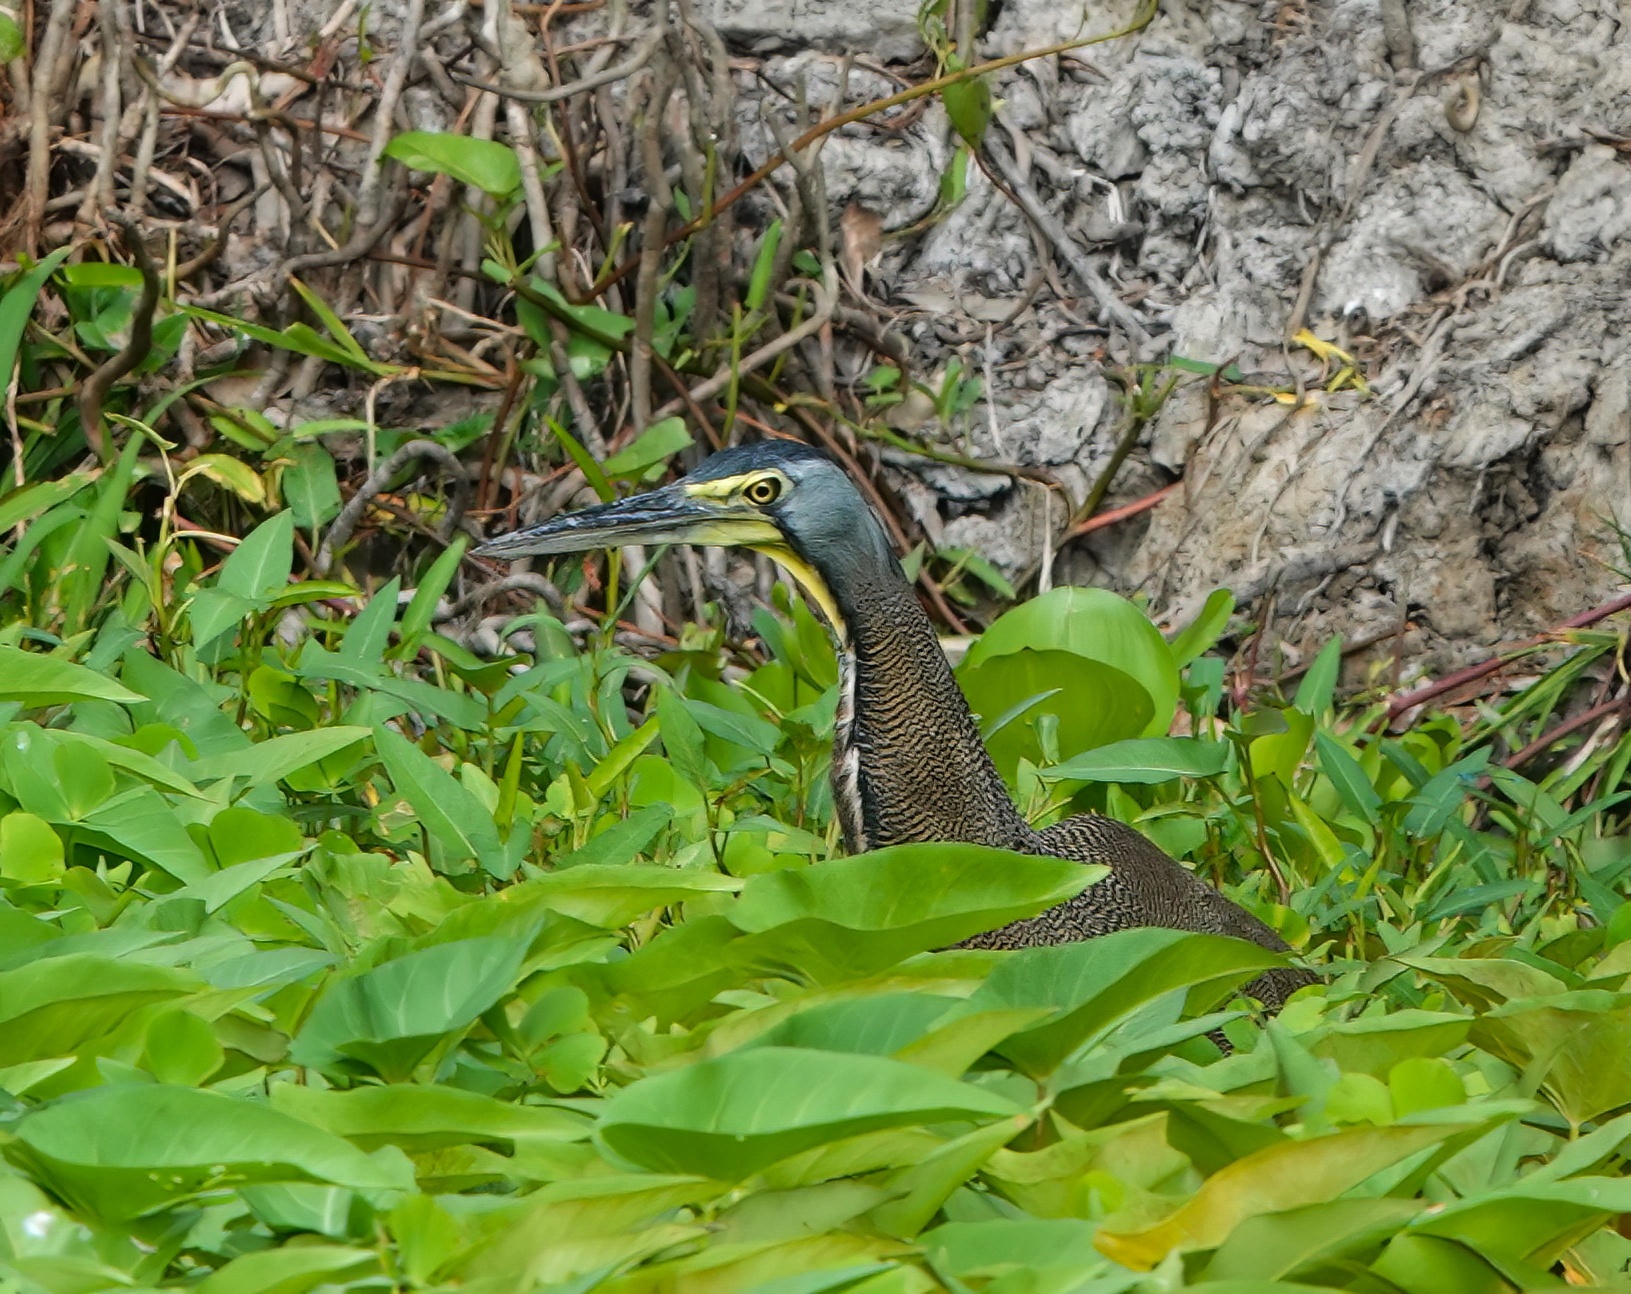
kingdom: Animalia
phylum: Chordata
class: Aves
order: Pelecaniformes
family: Ardeidae
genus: Tigrisoma
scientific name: Tigrisoma mexicanum
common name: Bare-throated tiger-heron
